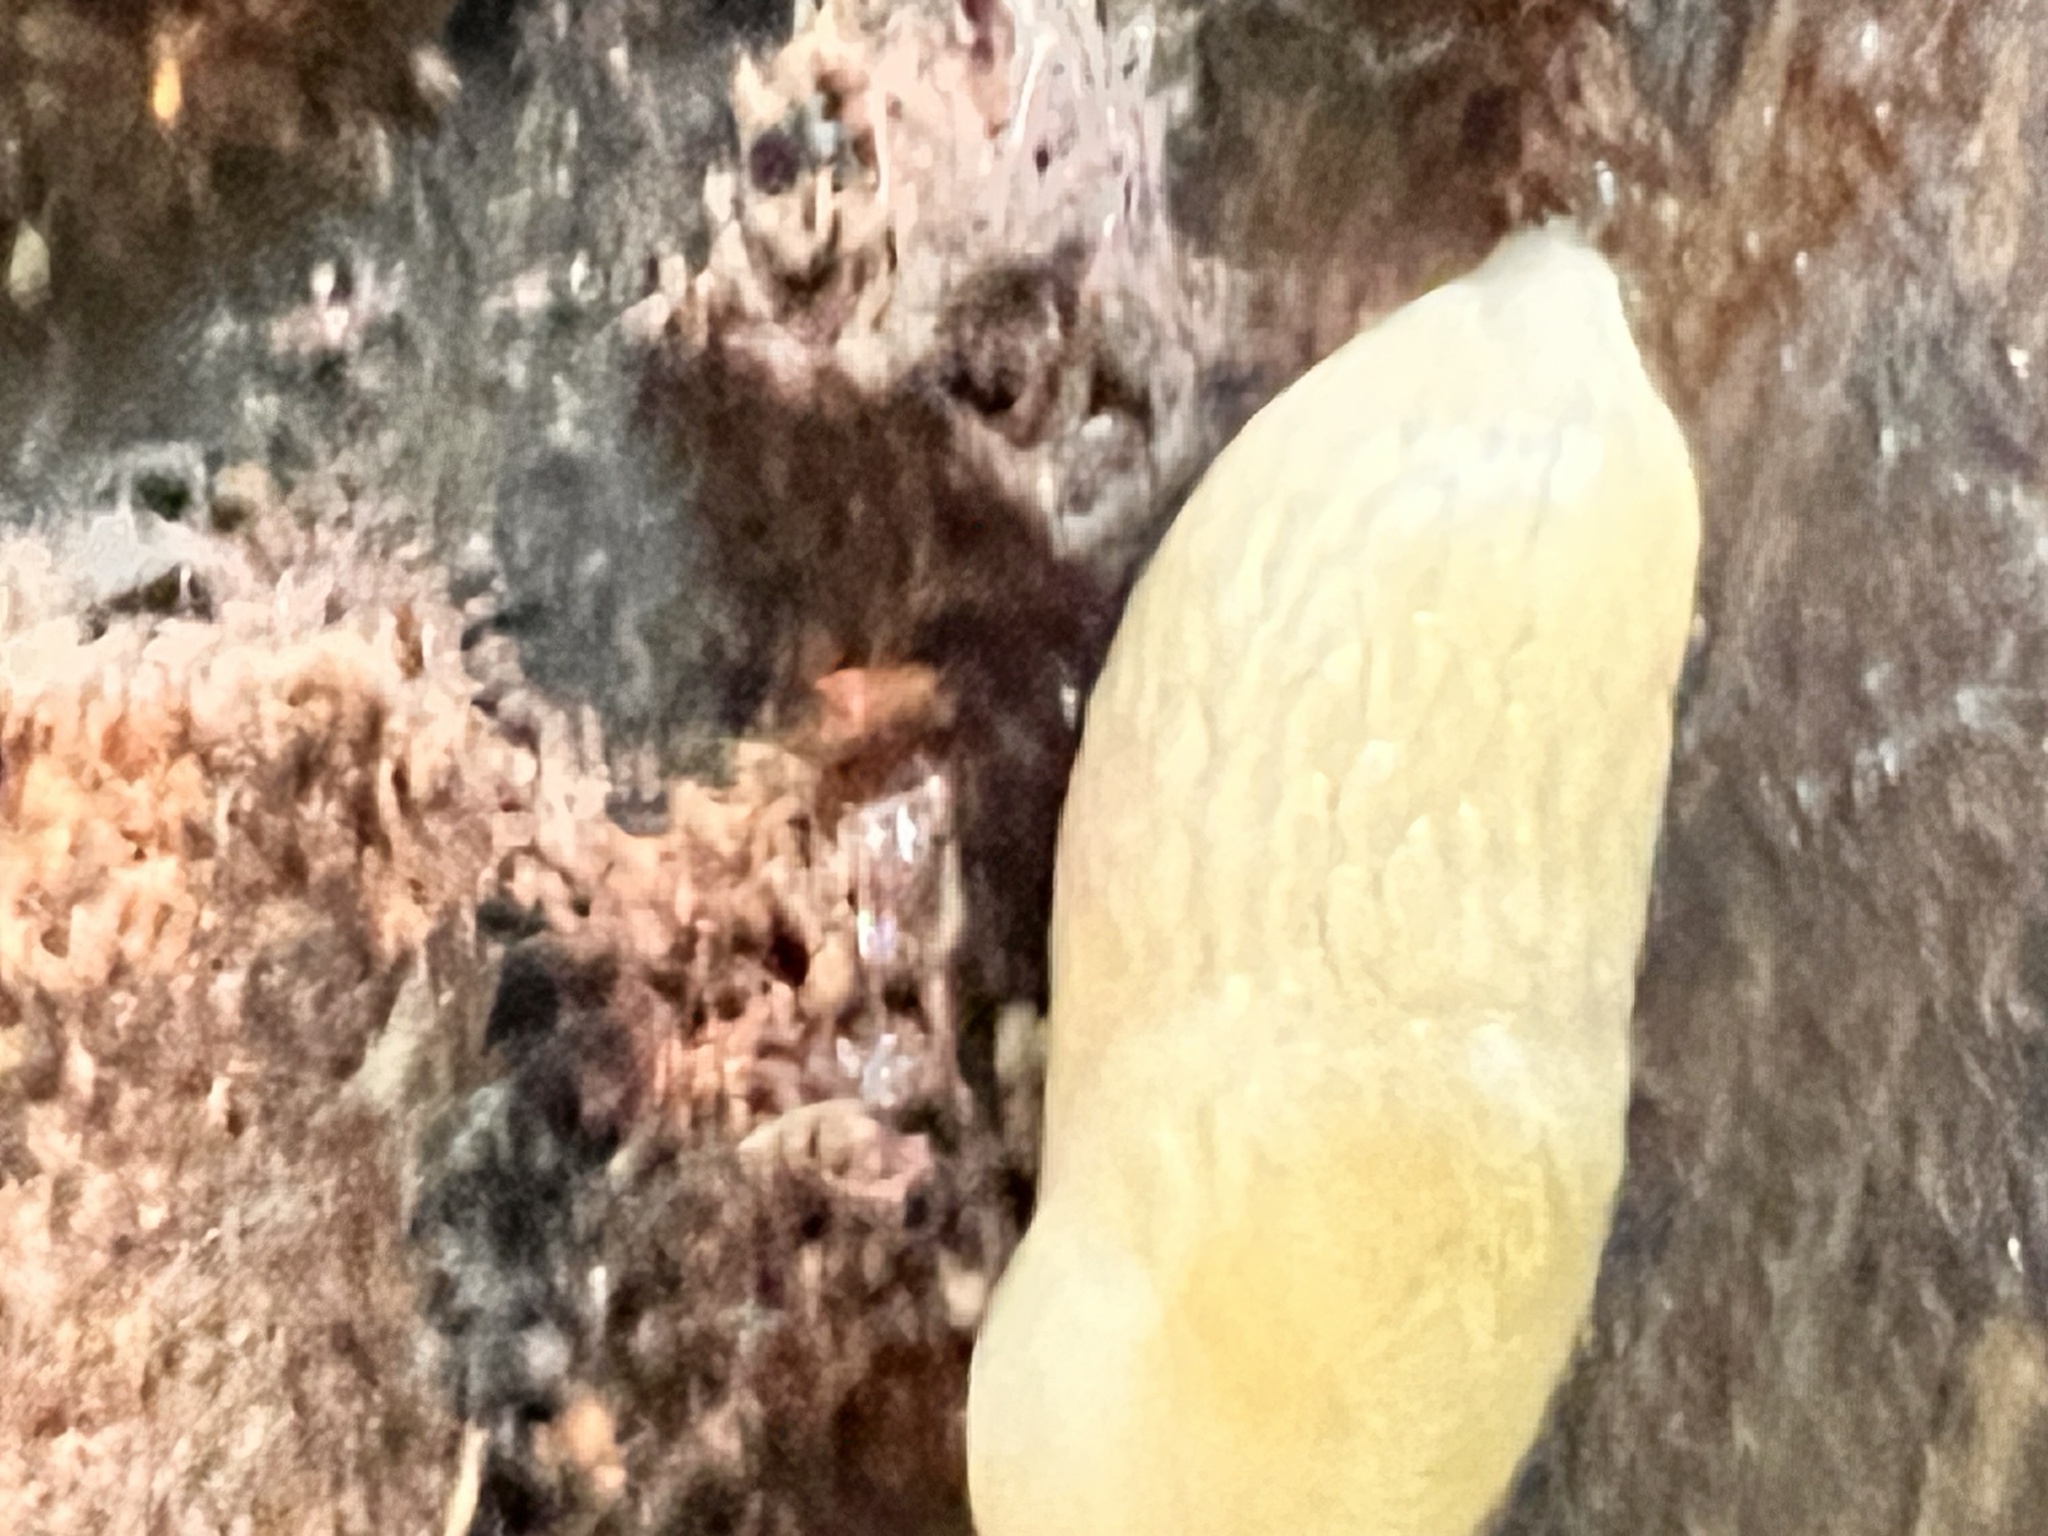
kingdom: Animalia
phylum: Mollusca
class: Gastropoda
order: Stylommatophora
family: Agriolimacidae
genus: Deroceras
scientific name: Deroceras reticulatum
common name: Gray field slug
